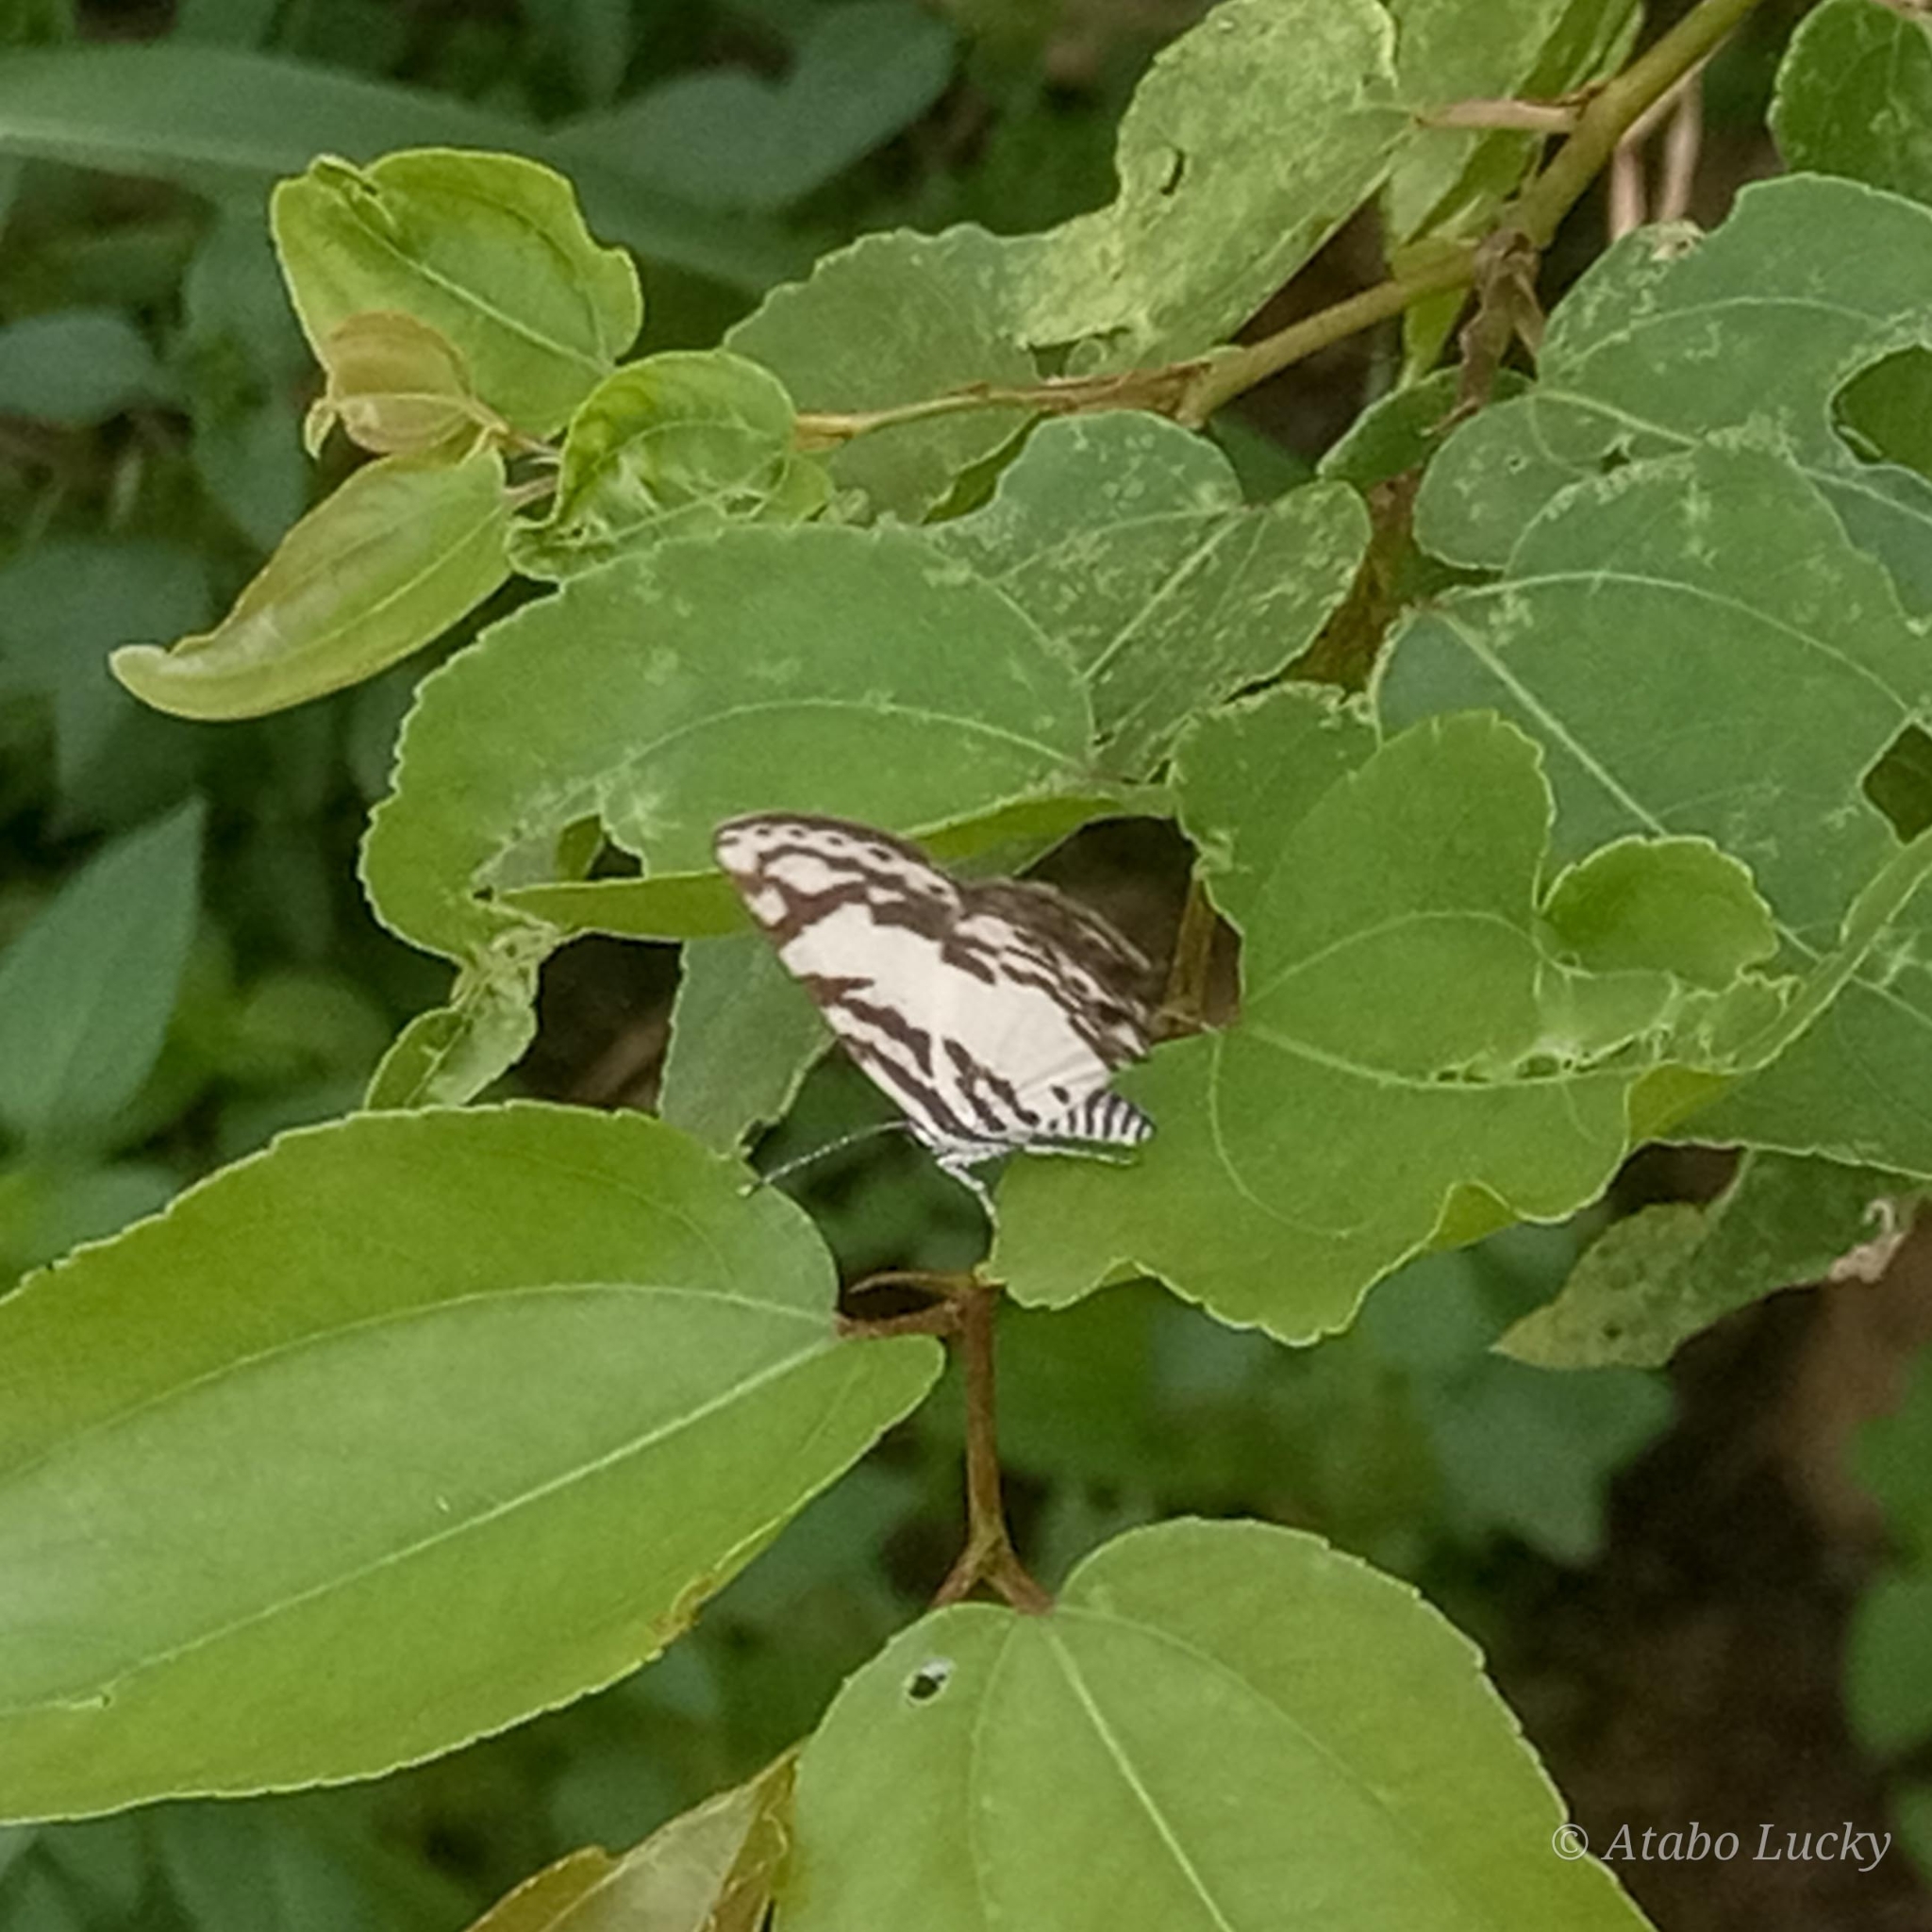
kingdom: Animalia
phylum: Arthropoda
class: Insecta
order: Lepidoptera
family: Lycaenidae
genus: Tuxentius
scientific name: Tuxentius
